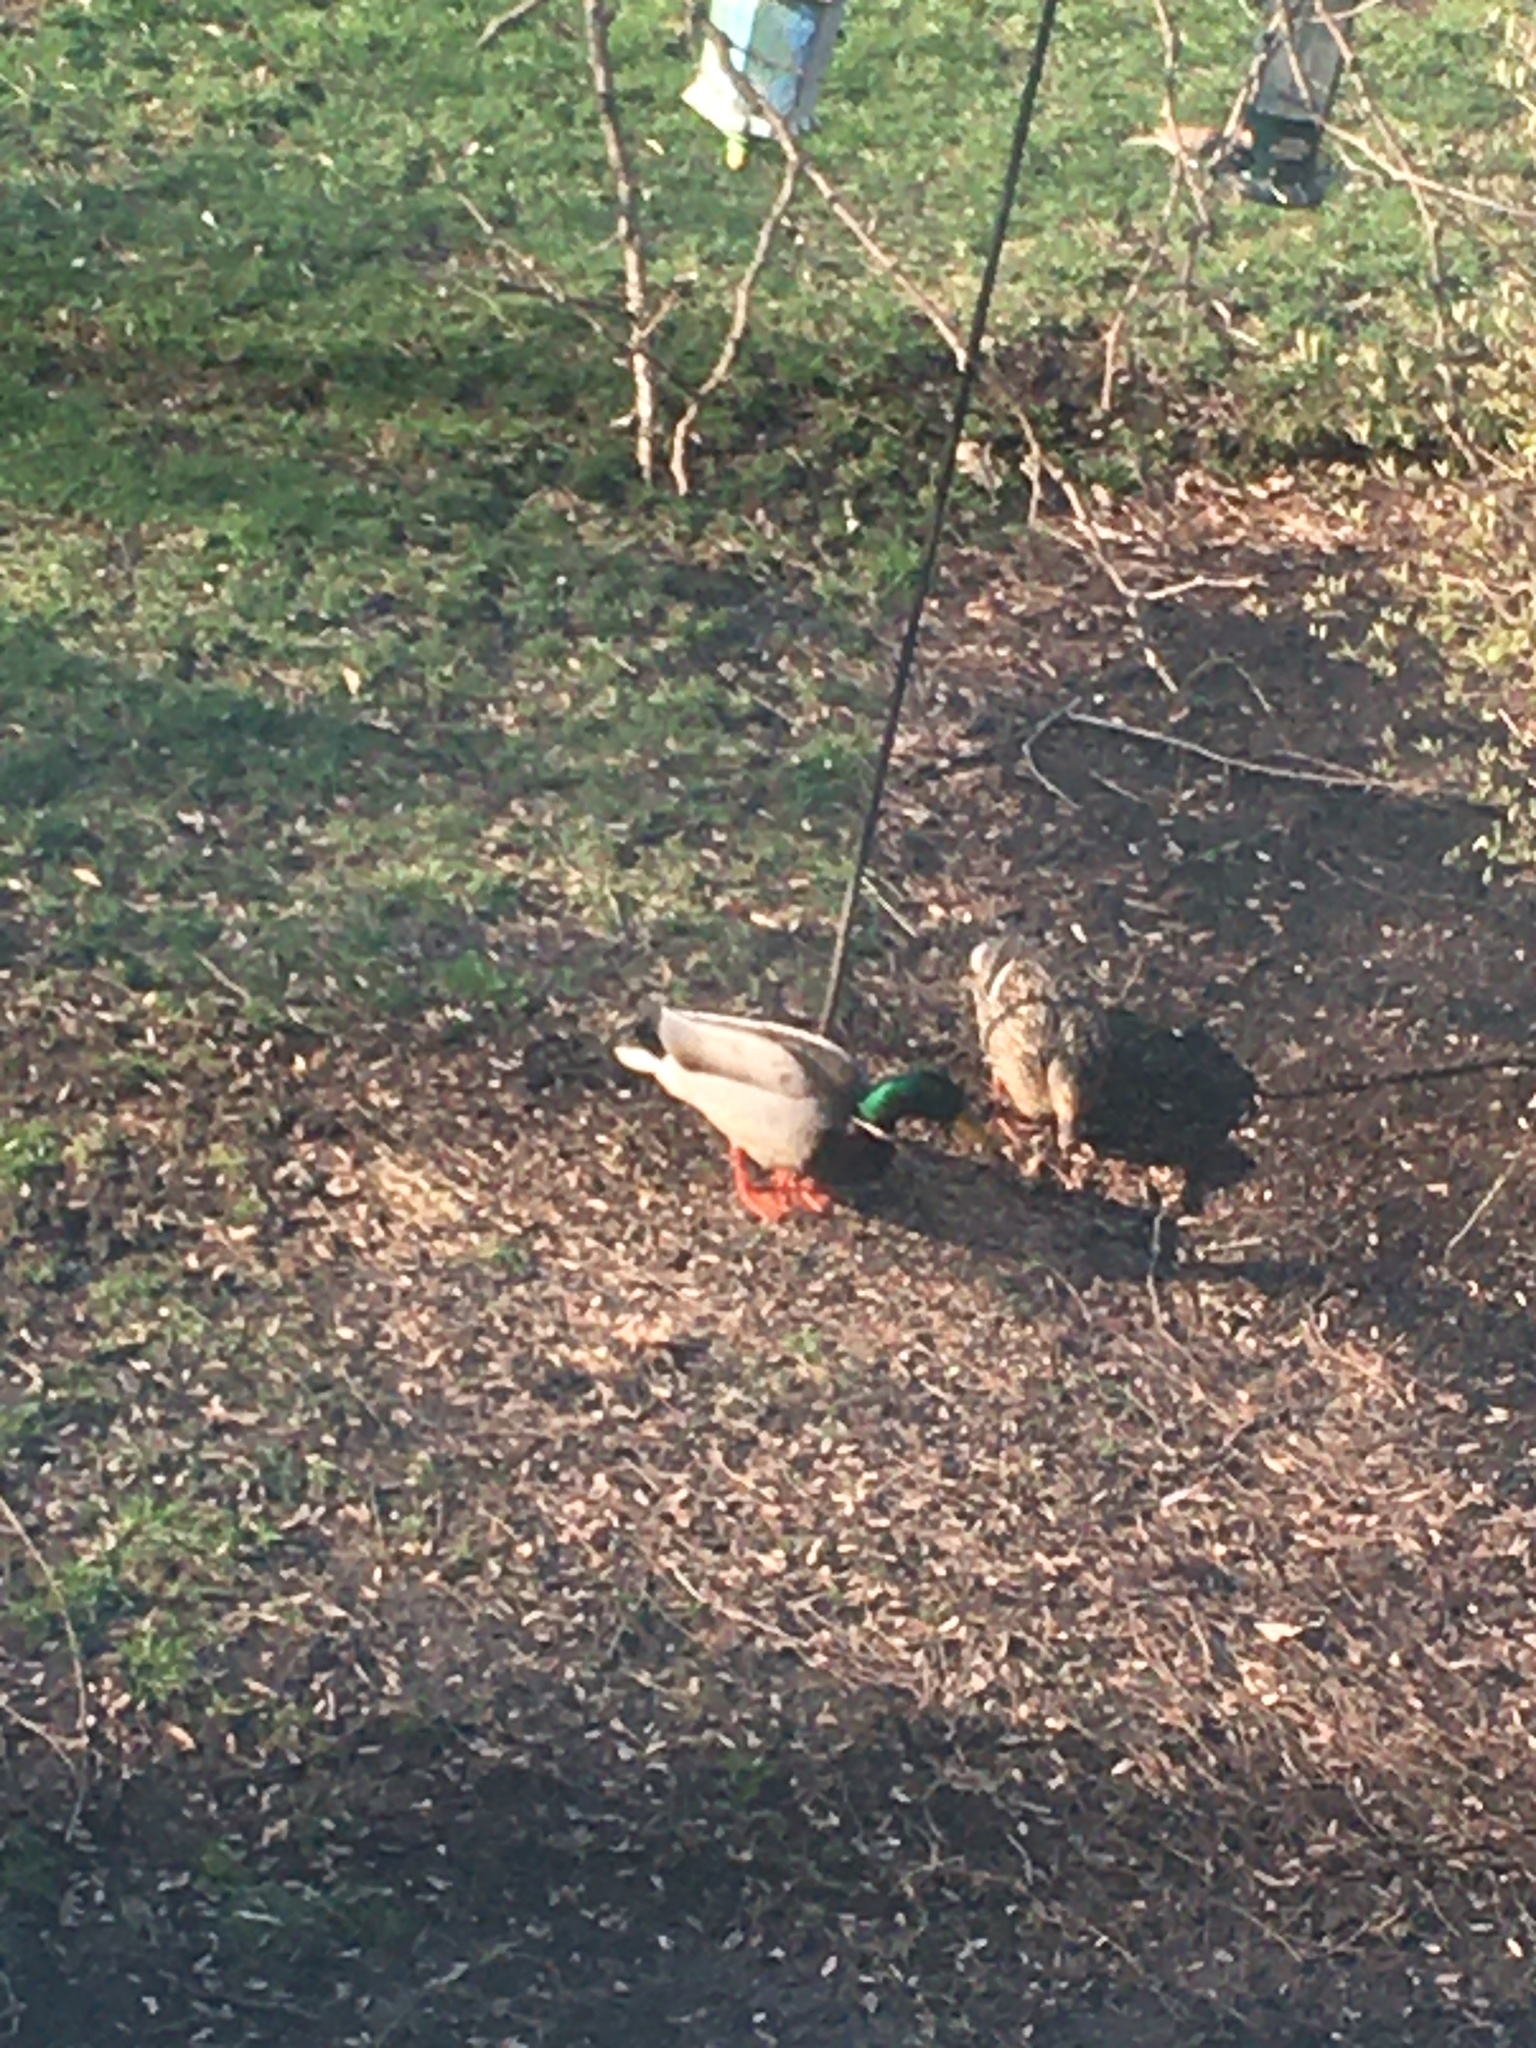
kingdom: Animalia
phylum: Chordata
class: Aves
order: Anseriformes
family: Anatidae
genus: Anas
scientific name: Anas platyrhynchos
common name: Mallard
